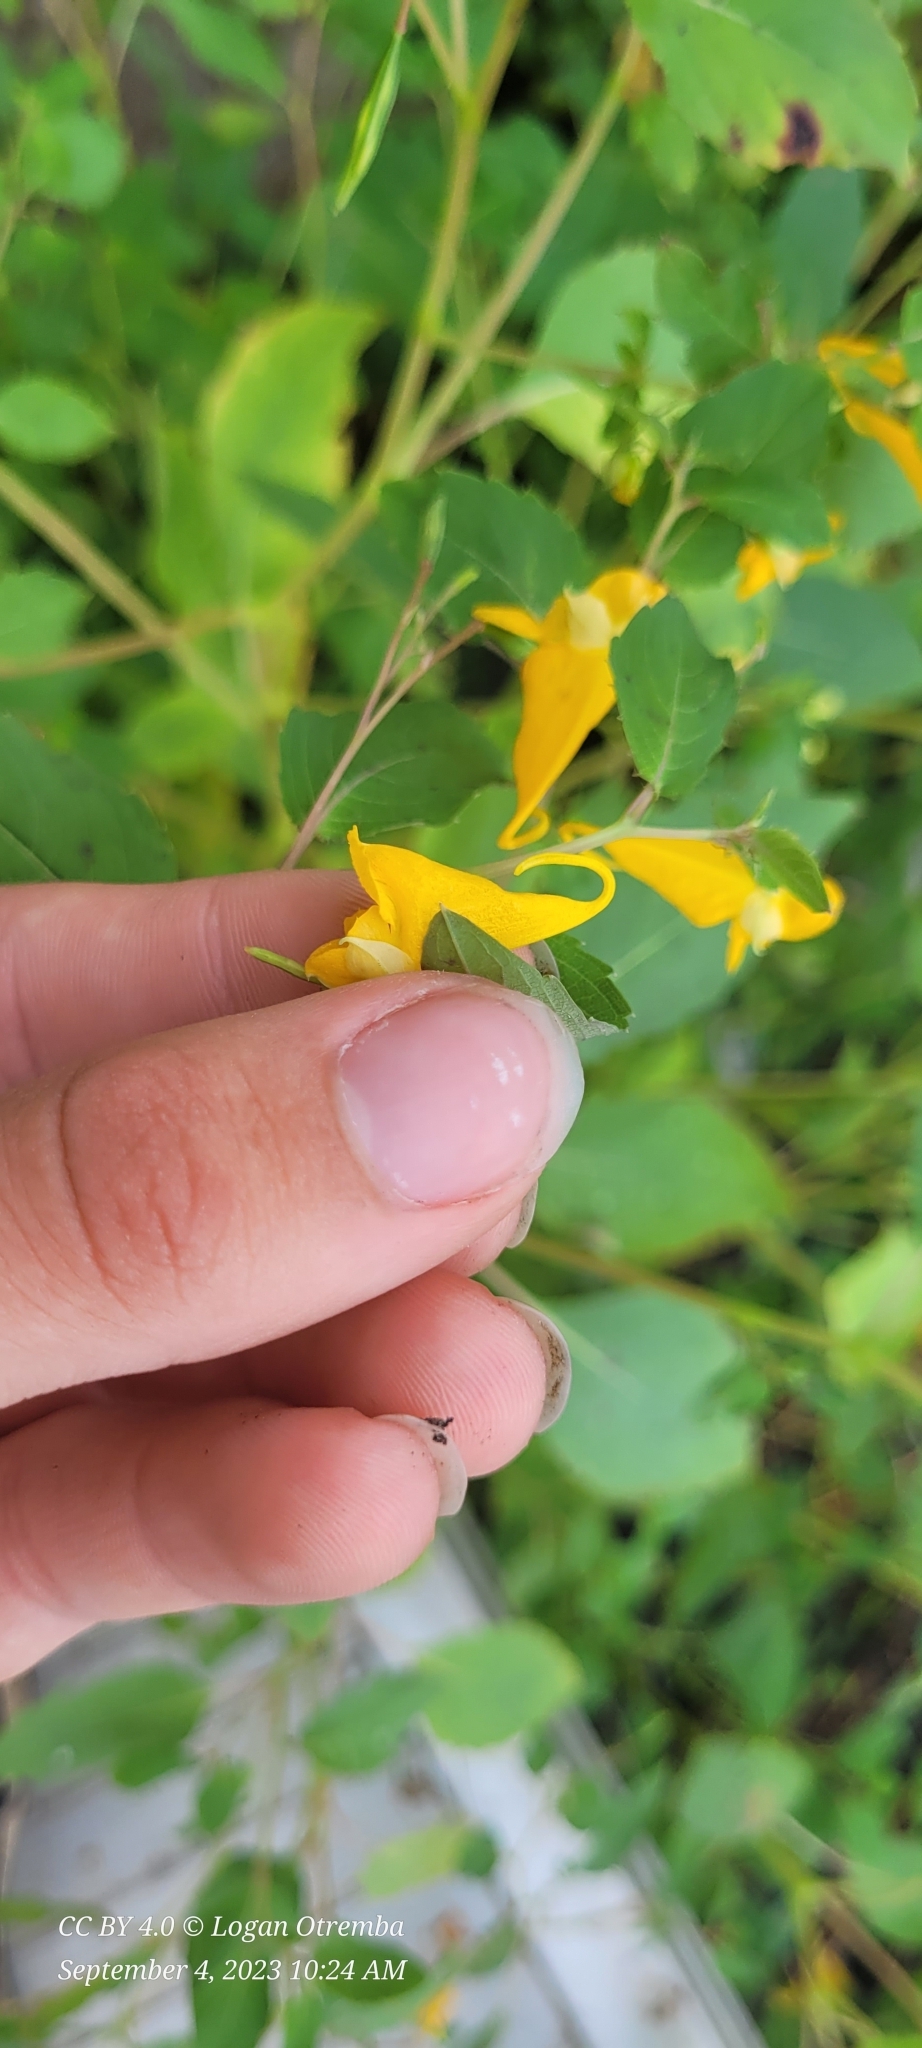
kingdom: Plantae
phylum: Tracheophyta
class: Magnoliopsida
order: Ericales
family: Balsaminaceae
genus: Impatiens
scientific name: Impatiens capensis
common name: Orange balsam
